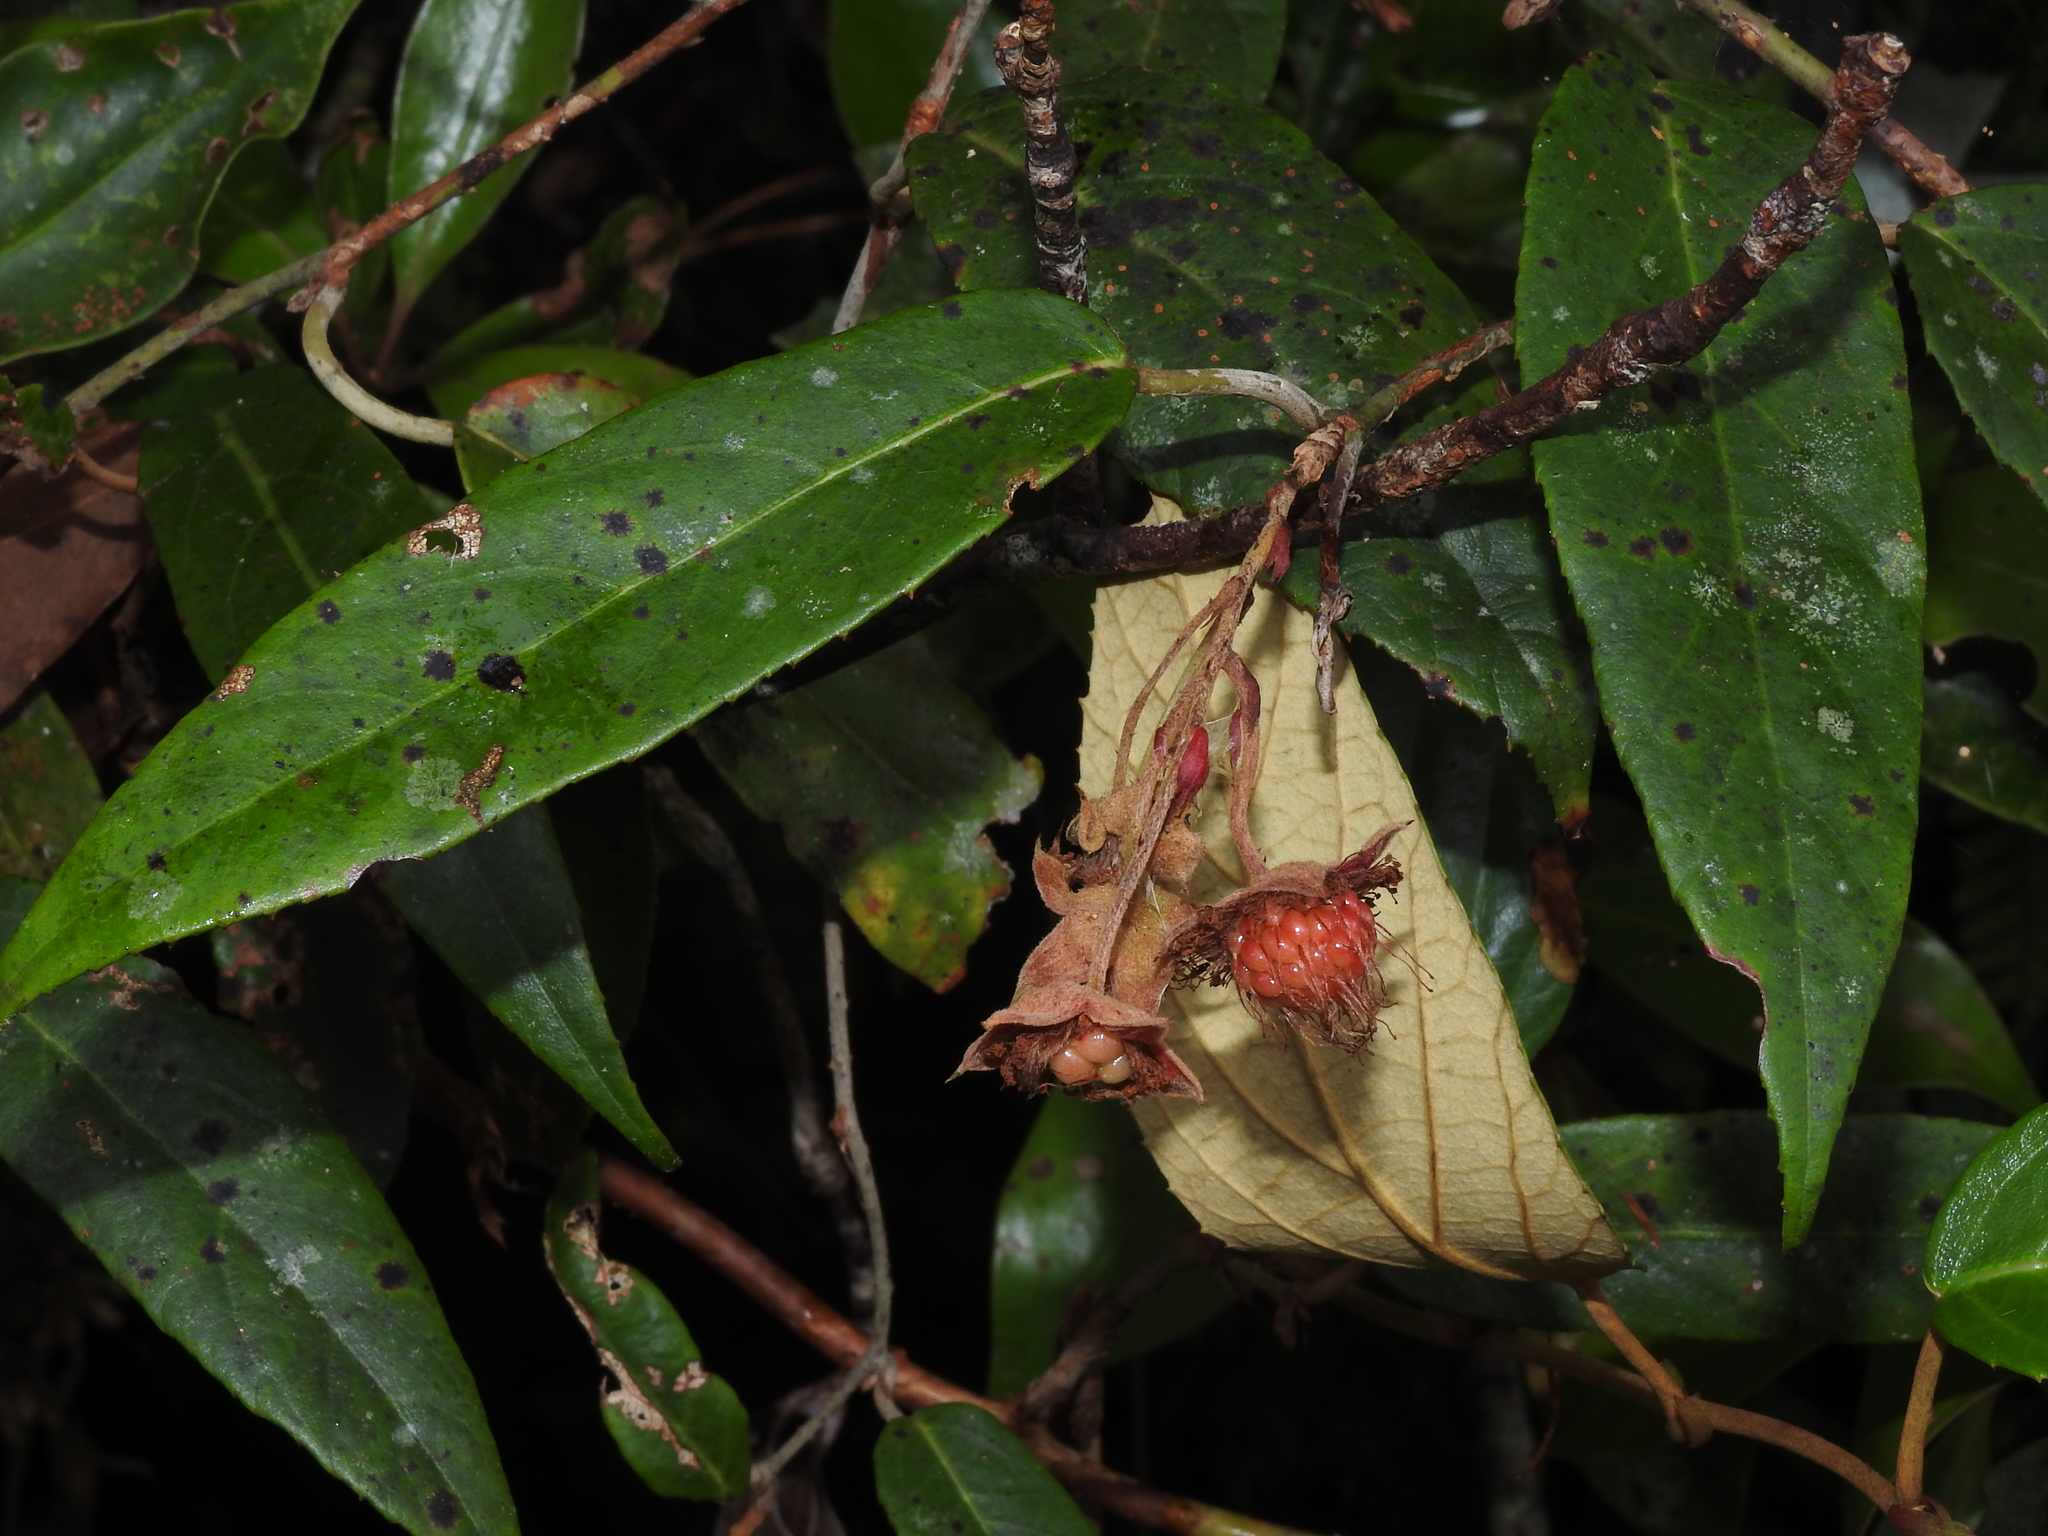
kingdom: Plantae
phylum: Tracheophyta
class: Magnoliopsida
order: Rosales
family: Rosaceae
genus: Rubus
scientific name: Rubus liui
